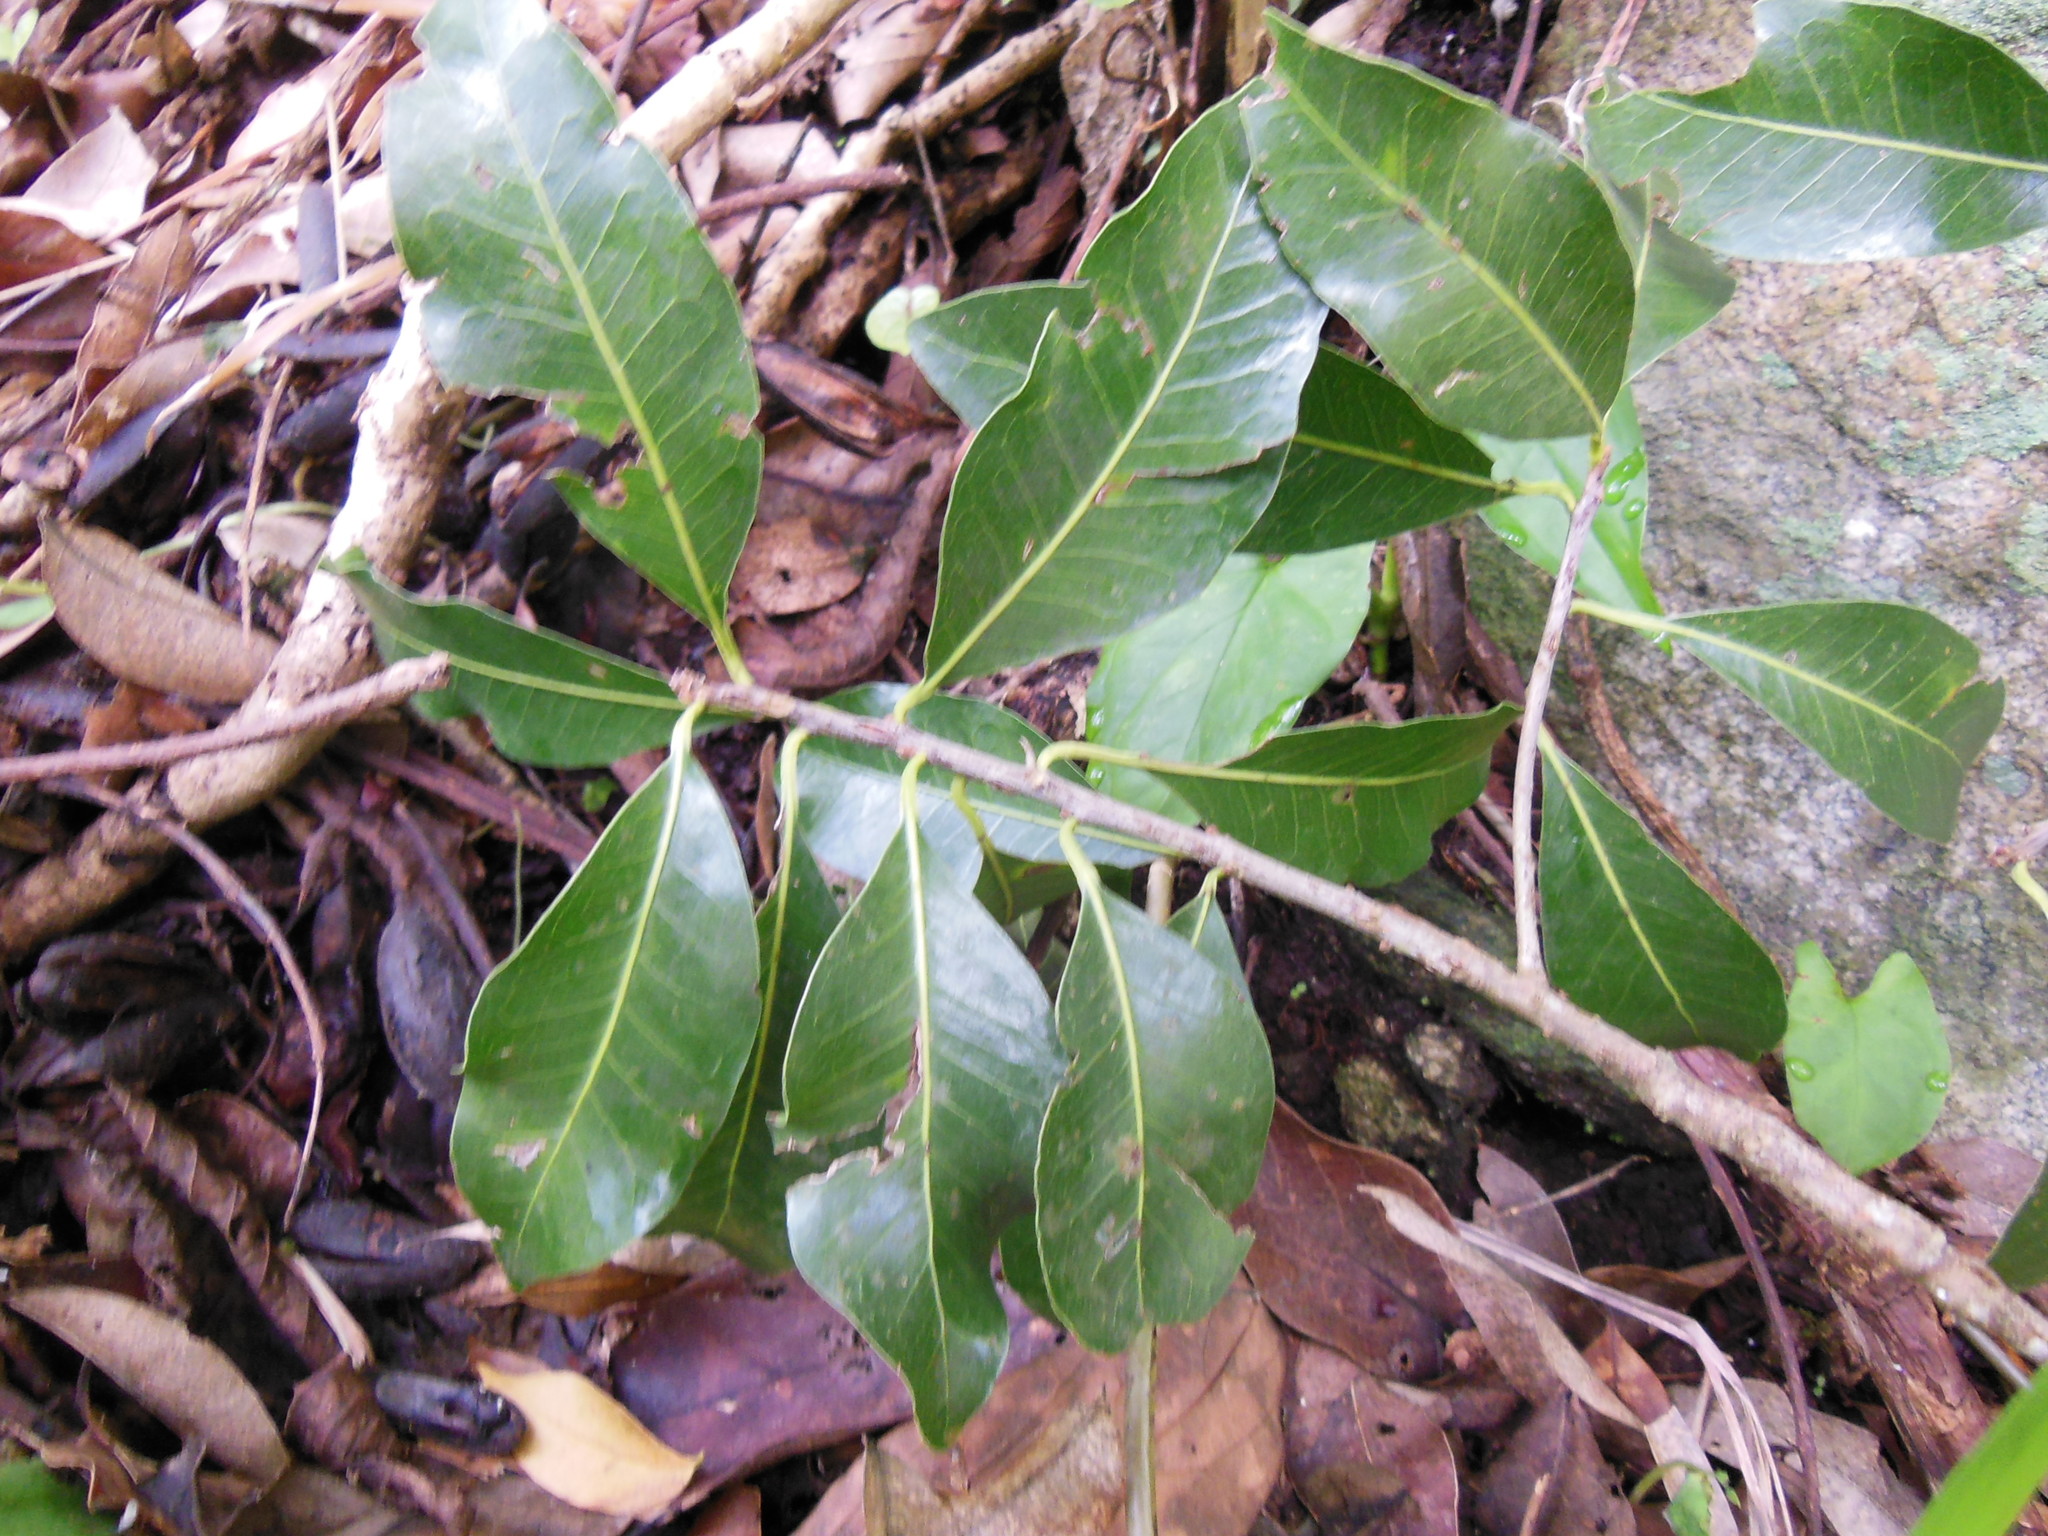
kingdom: Plantae
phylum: Tracheophyta
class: Magnoliopsida
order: Ericales
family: Sapotaceae
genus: Sideroxylon
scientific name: Sideroxylon persimile
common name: Bumelia
